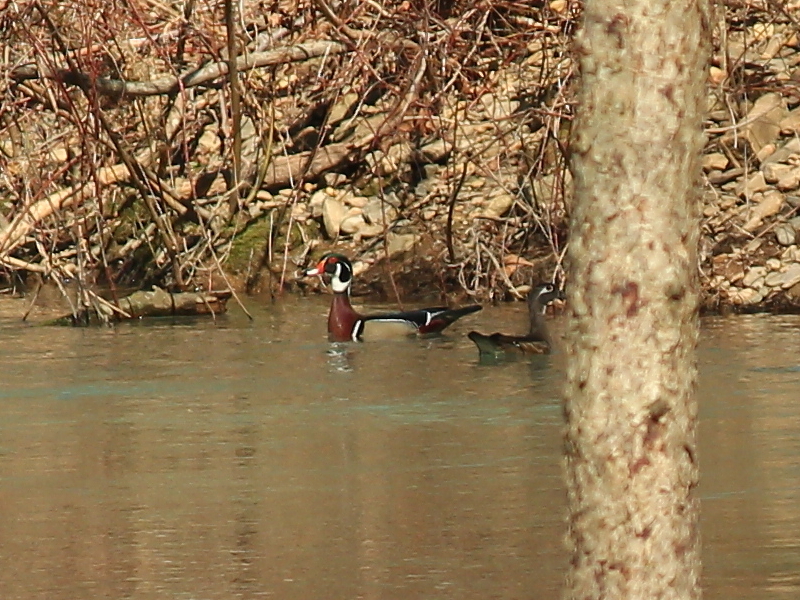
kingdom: Animalia
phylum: Chordata
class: Aves
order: Anseriformes
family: Anatidae
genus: Aix
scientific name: Aix sponsa
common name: Wood duck
